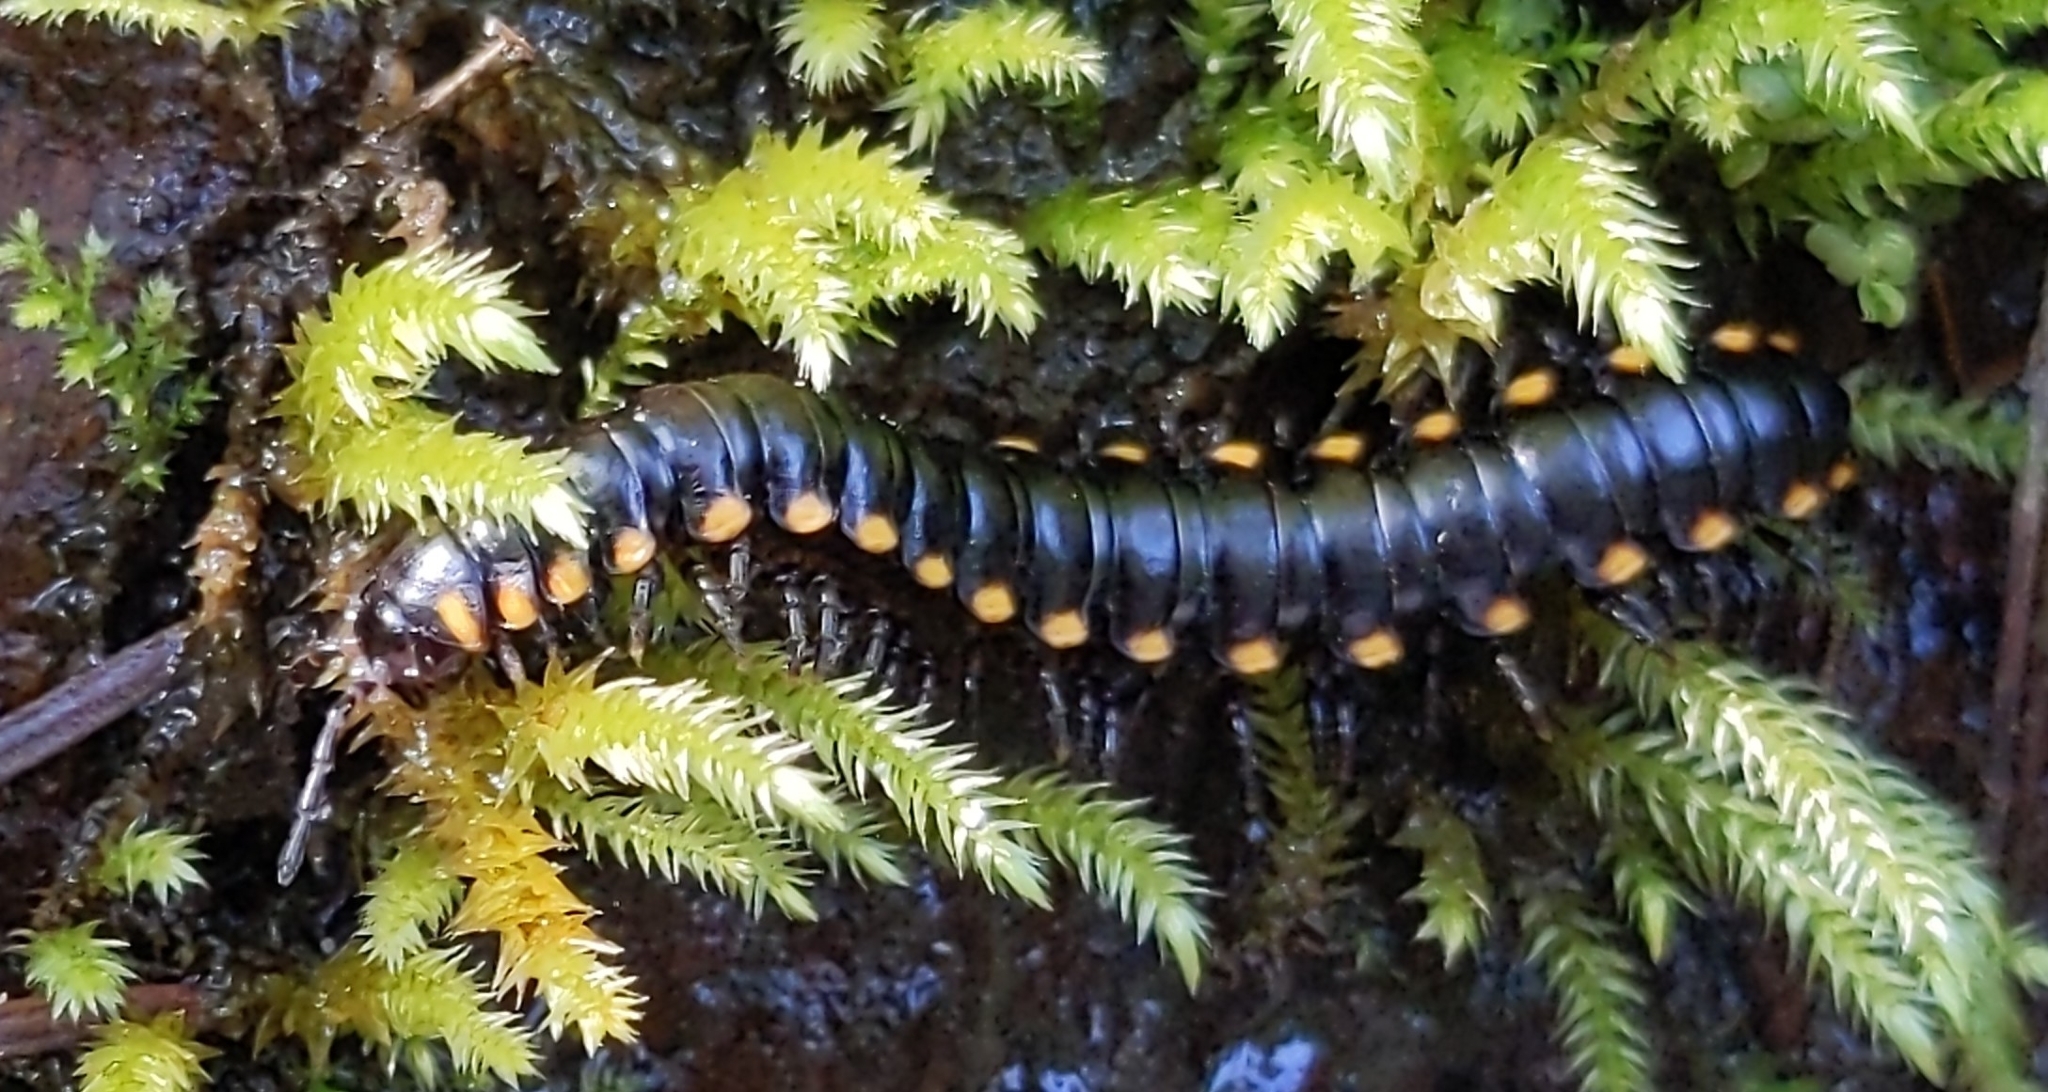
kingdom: Animalia
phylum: Arthropoda
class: Diplopoda
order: Polydesmida
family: Xystodesmidae
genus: Harpaphe
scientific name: Harpaphe haydeniana
